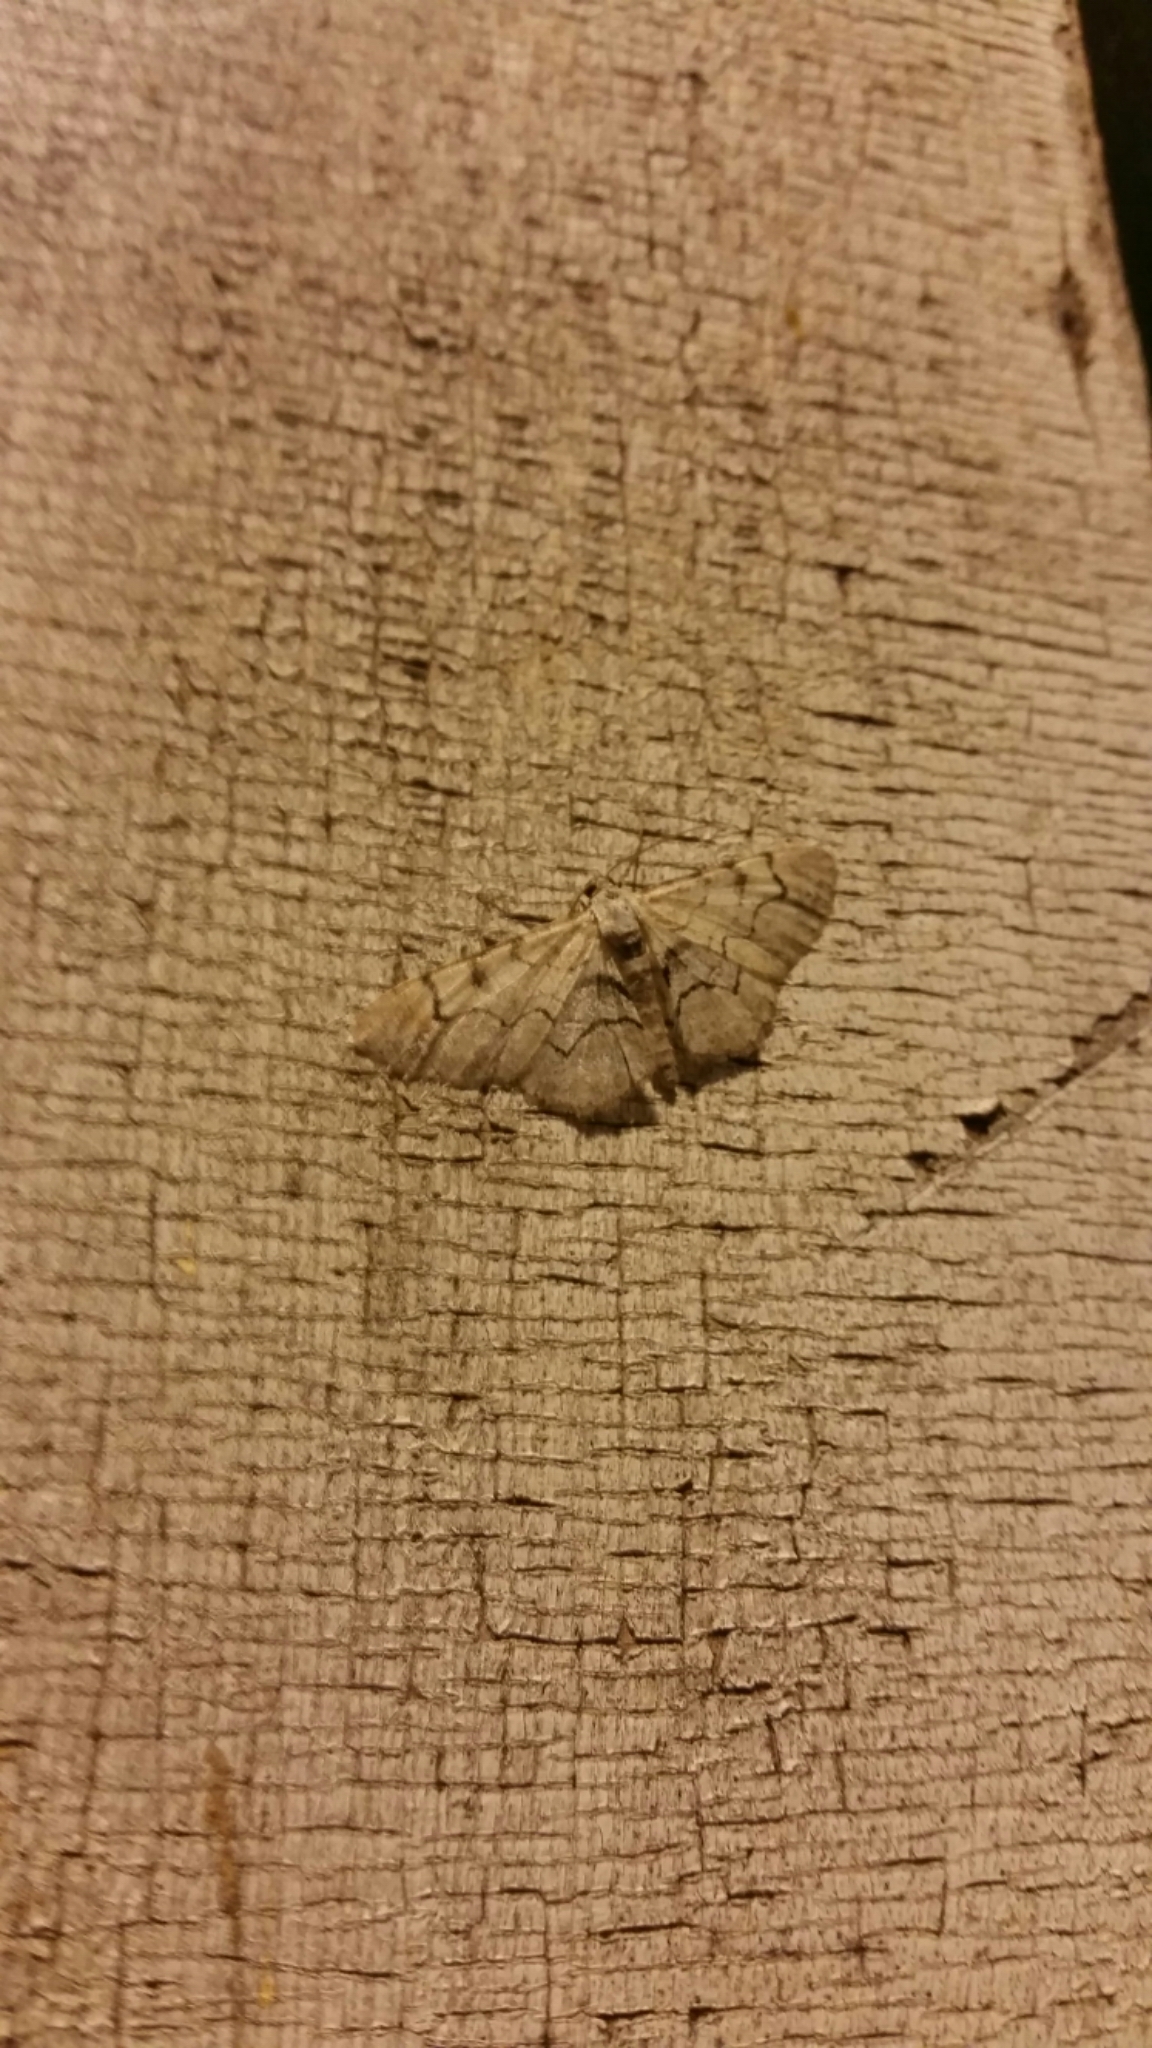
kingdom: Animalia
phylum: Arthropoda
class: Insecta
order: Lepidoptera
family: Geometridae
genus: Iridopsis
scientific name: Iridopsis larvaria
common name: Bent-line gray
